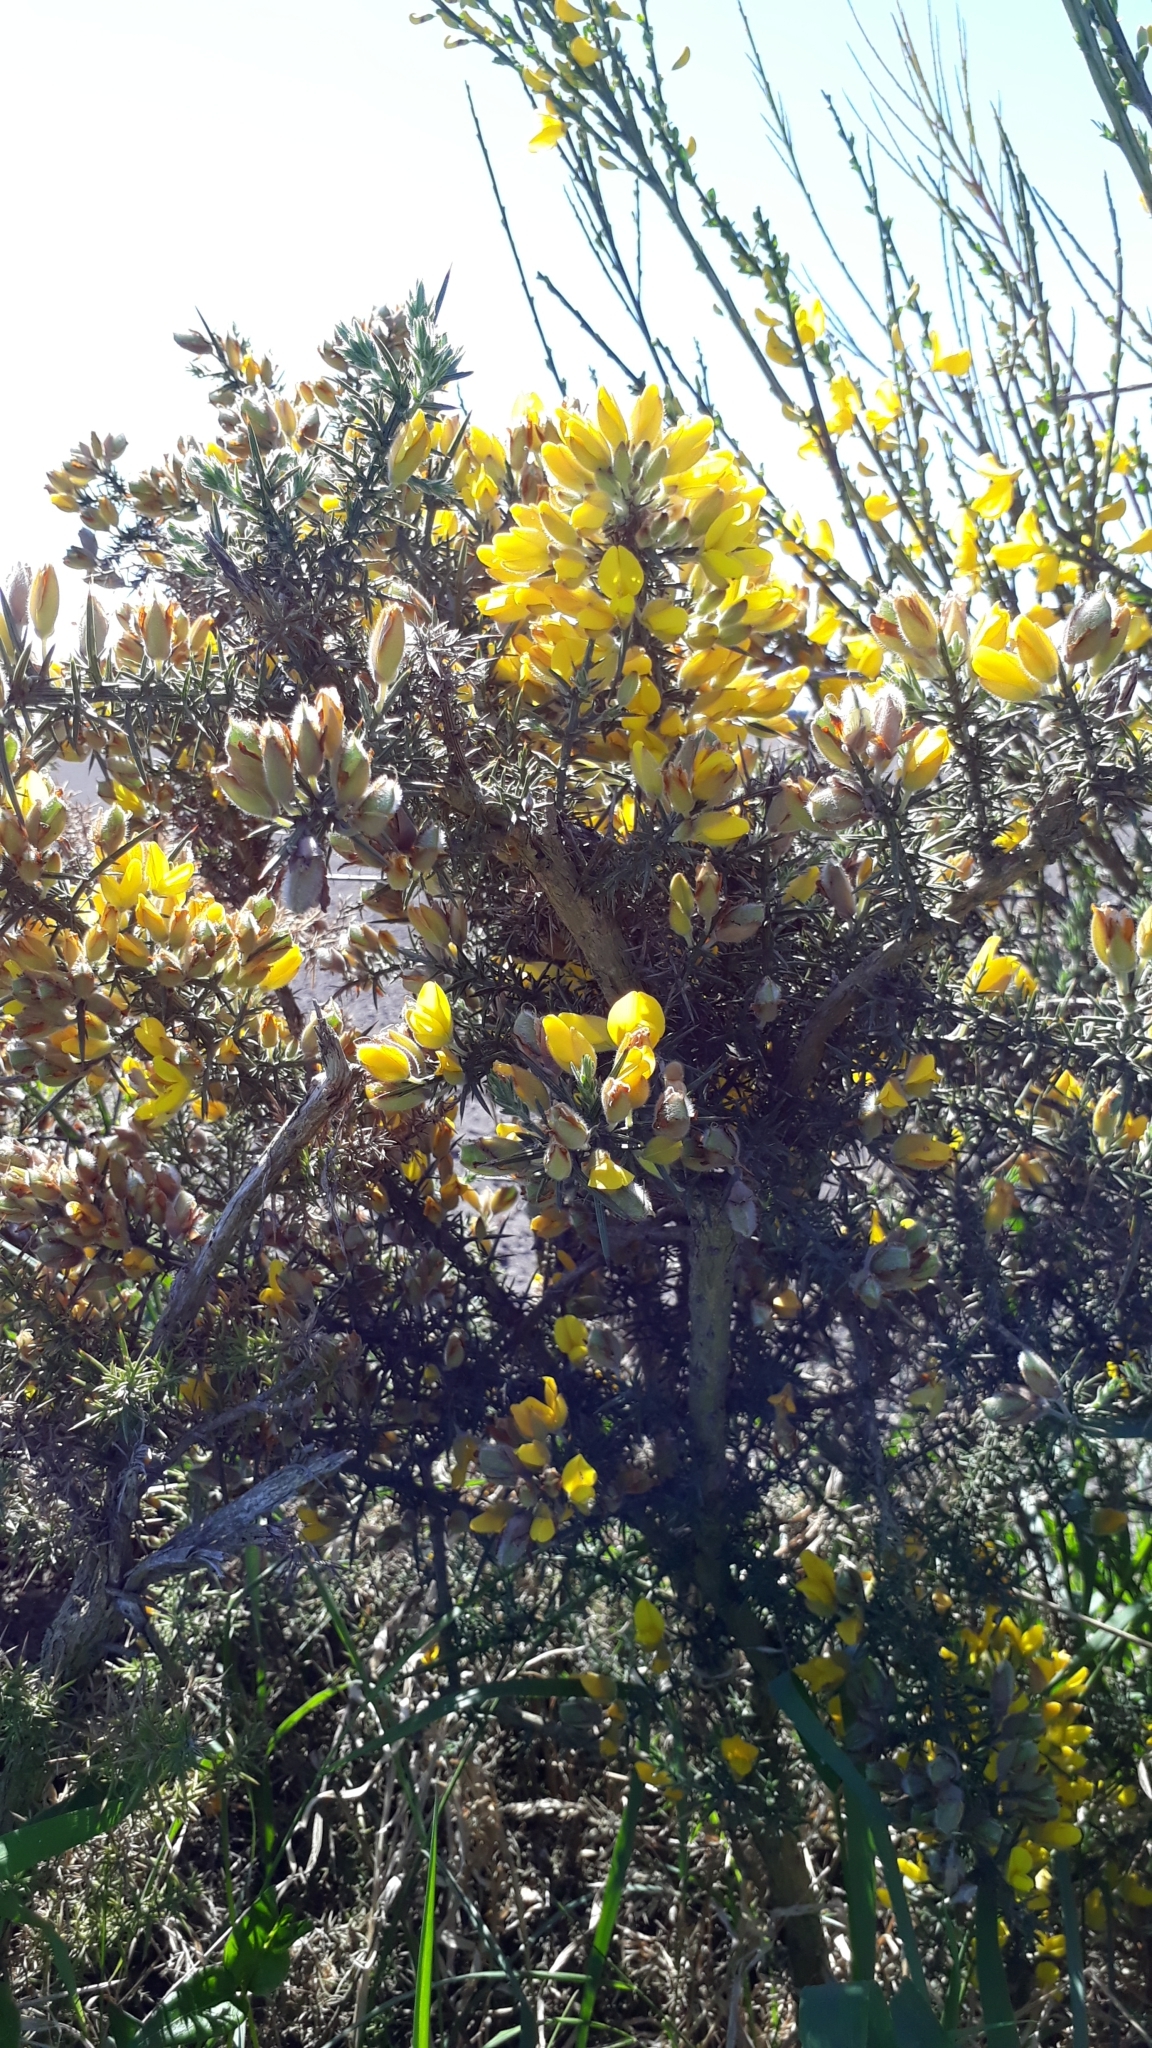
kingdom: Plantae
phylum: Tracheophyta
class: Magnoliopsida
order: Fabales
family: Fabaceae
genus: Ulex
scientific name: Ulex europaeus
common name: Common gorse
